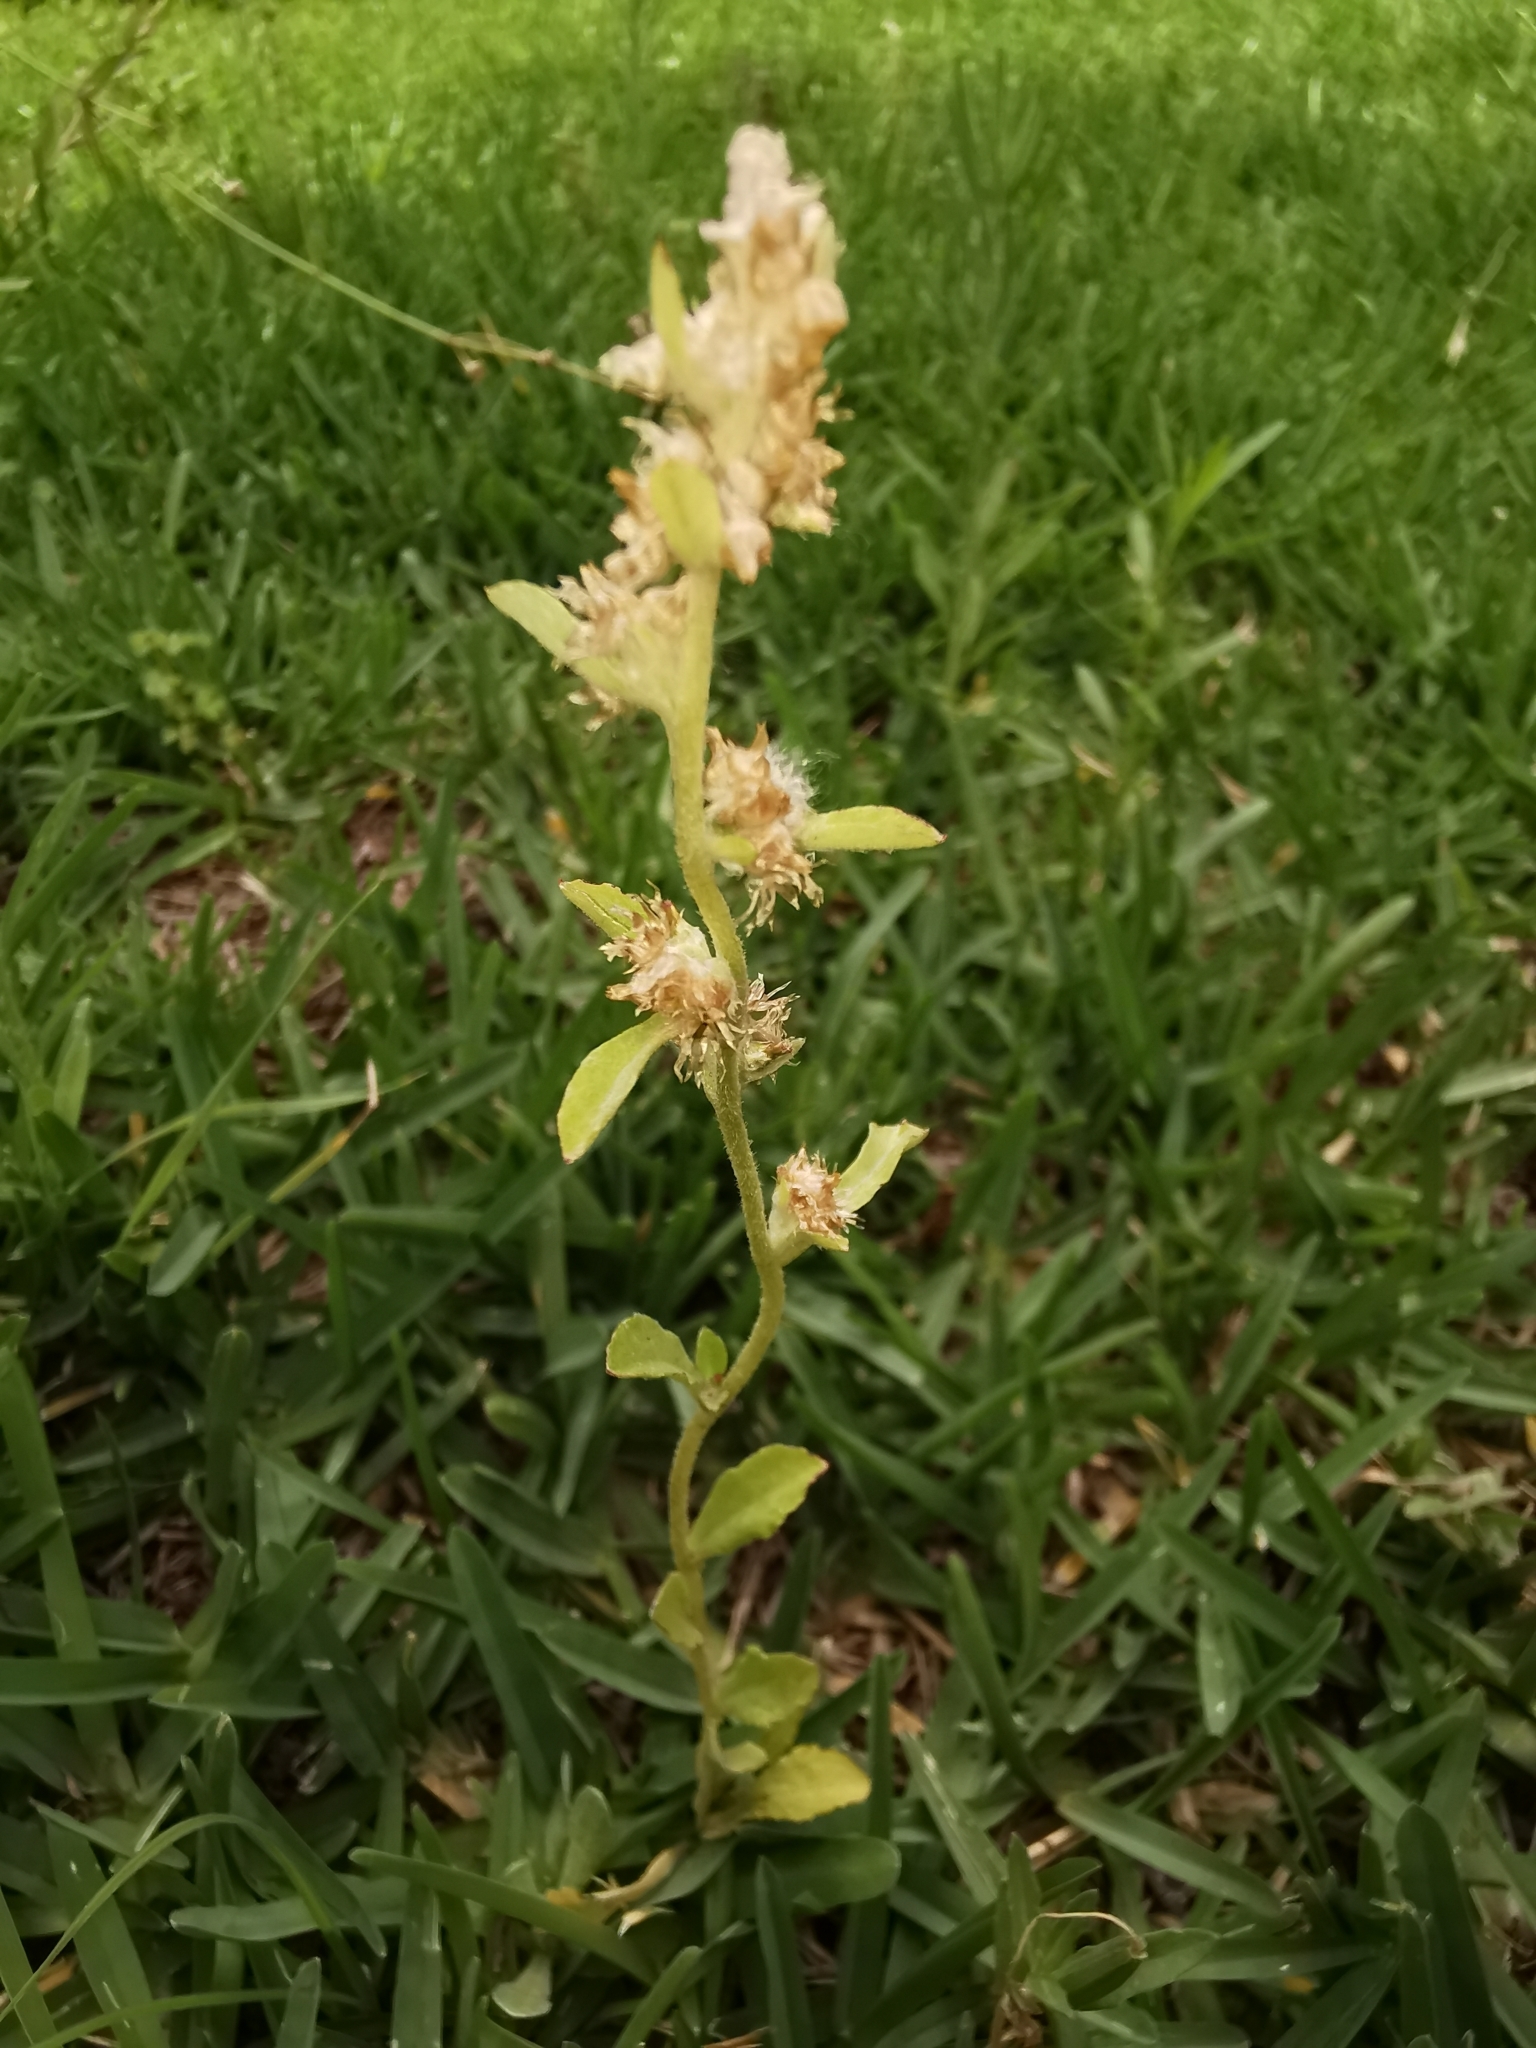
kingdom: Plantae
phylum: Tracheophyta
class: Magnoliopsida
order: Asterales
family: Asteraceae
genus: Gamochaeta
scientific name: Gamochaeta pensylvanica
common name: Pennsylvania everlasting
